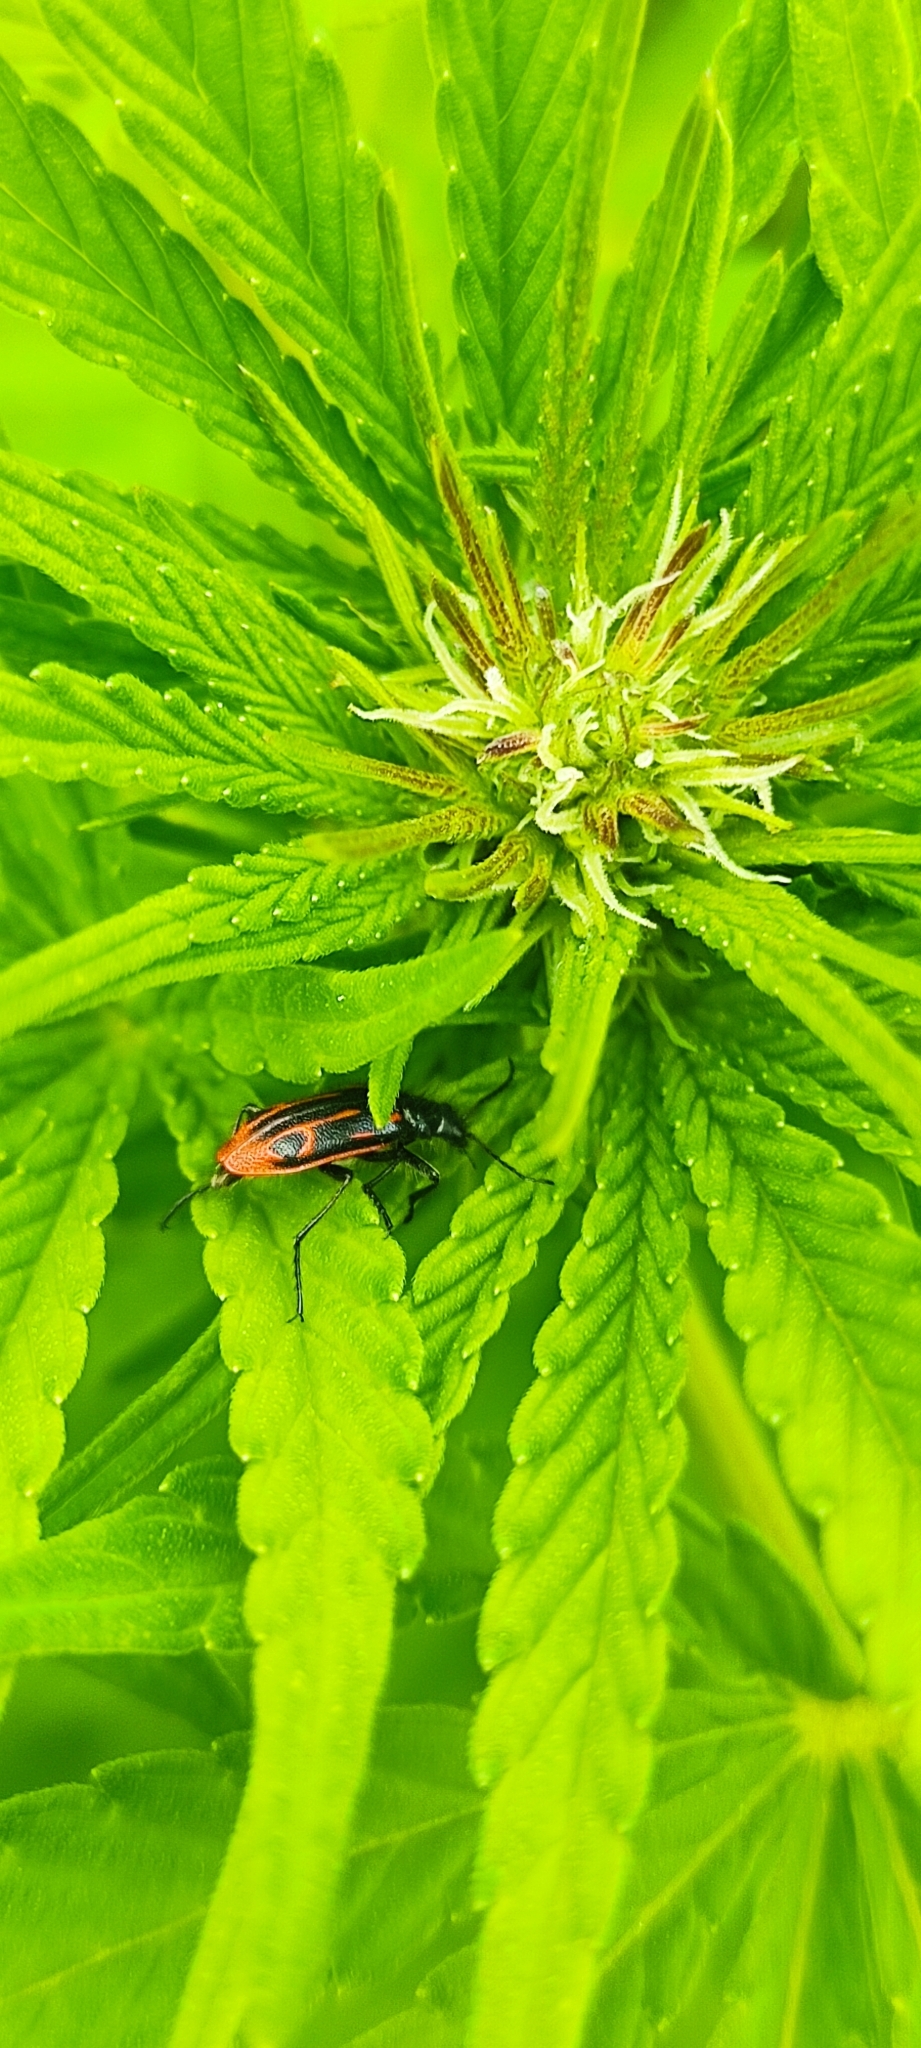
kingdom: Animalia
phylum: Arthropoda
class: Insecta
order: Coleoptera
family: Melyridae
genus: Astylus
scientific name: Astylus
